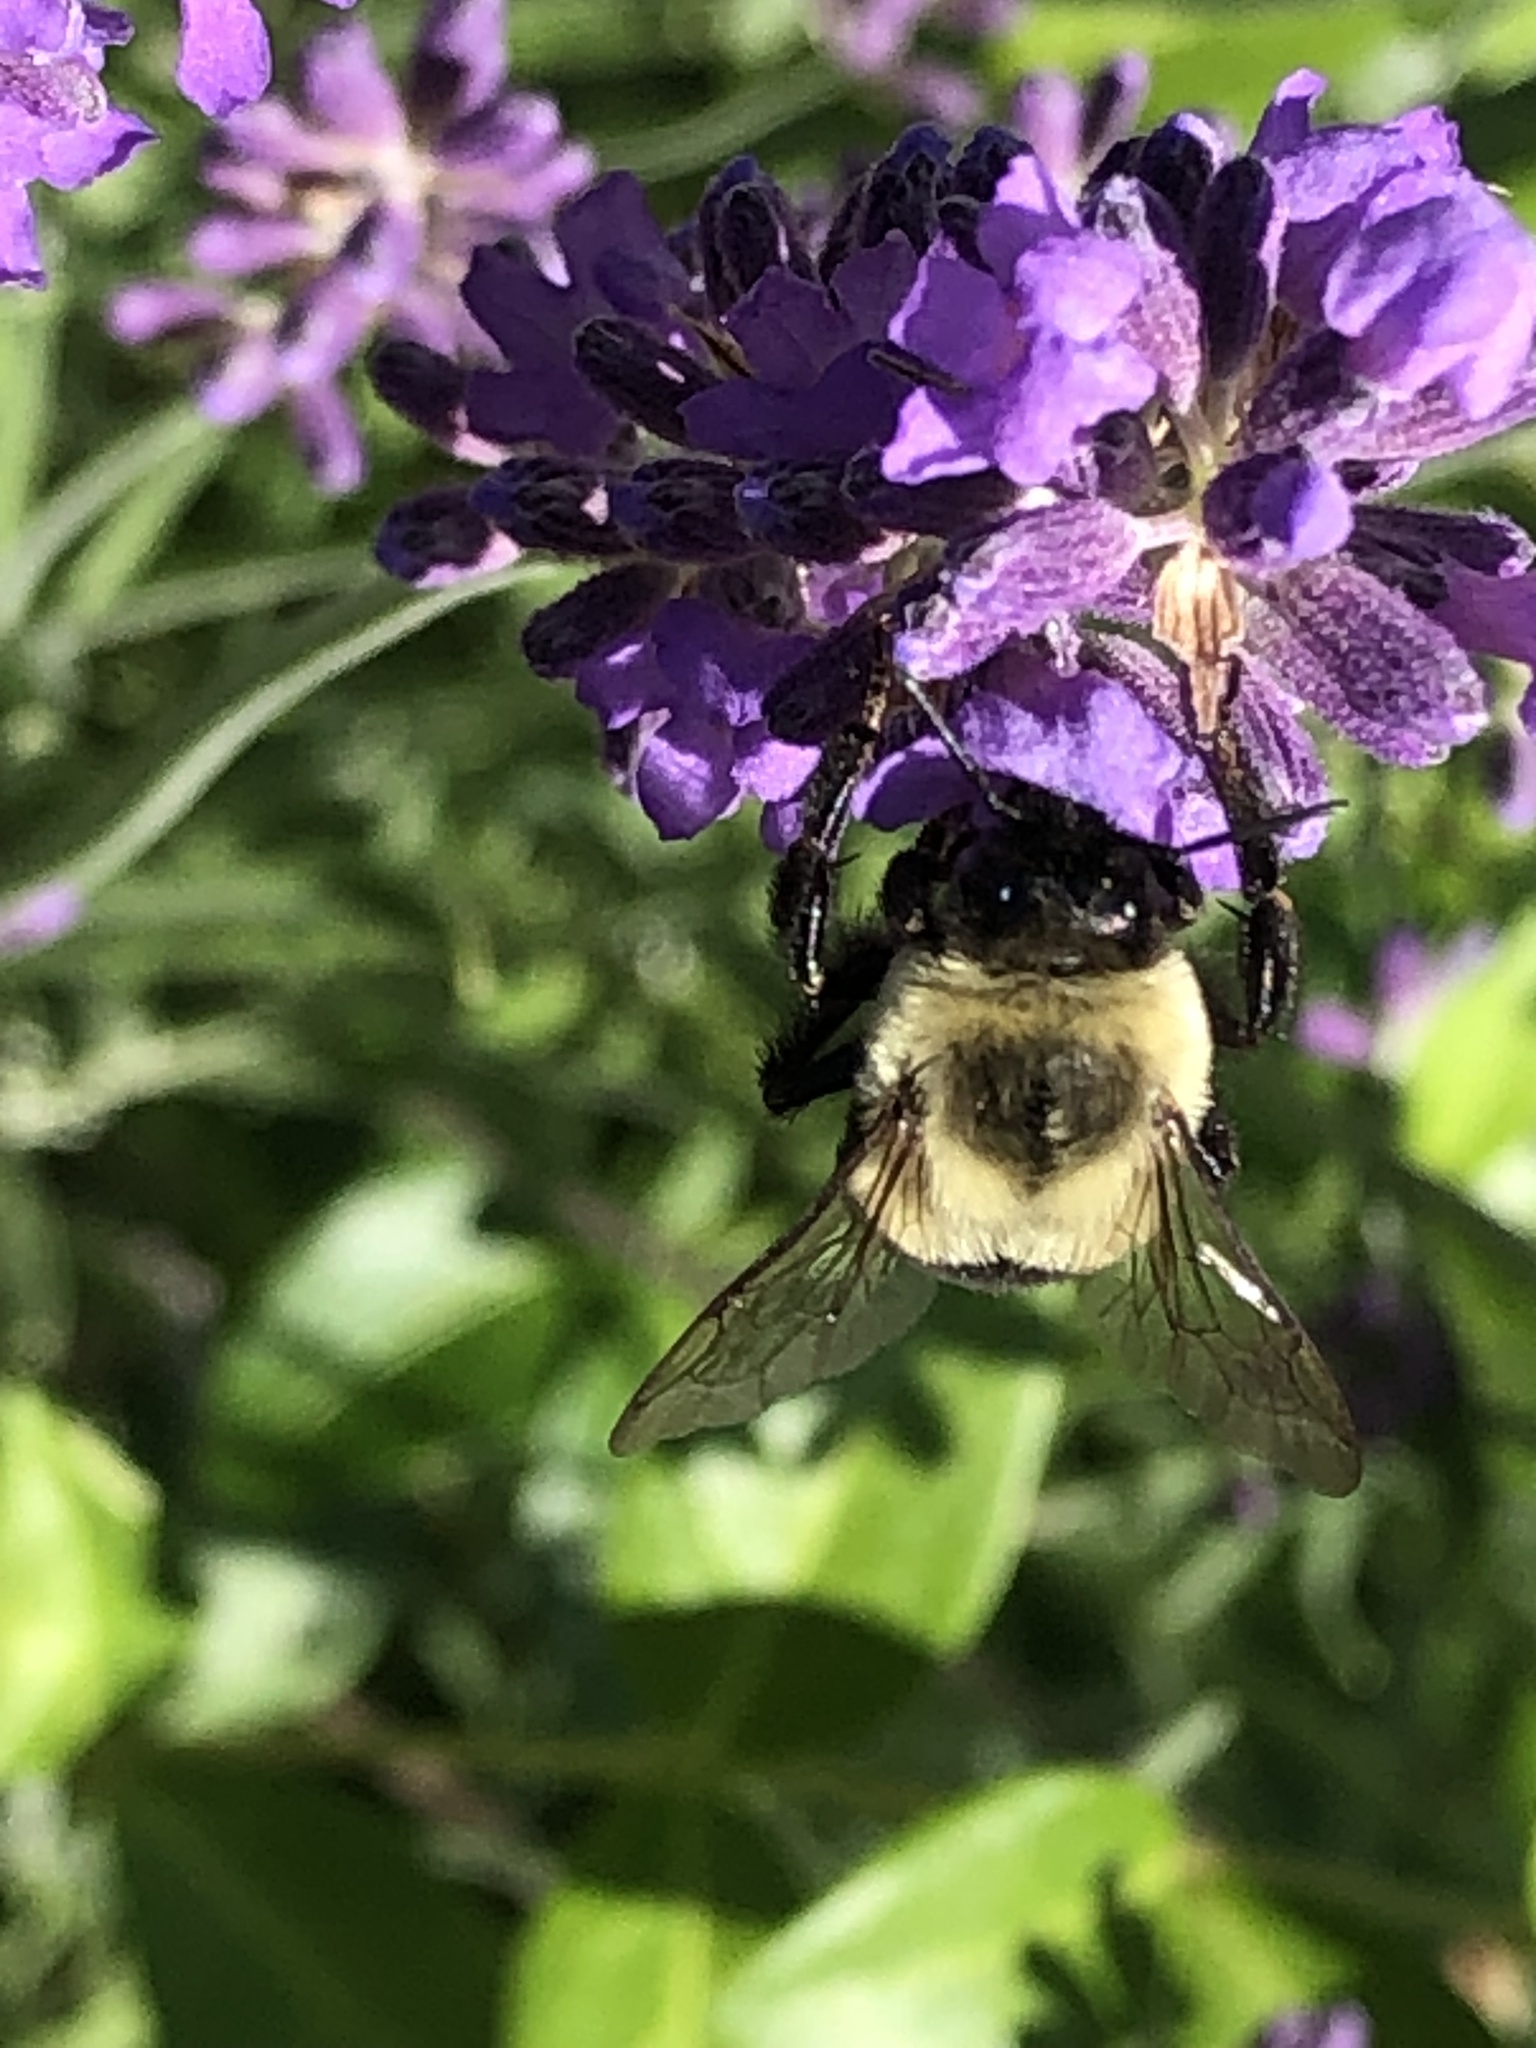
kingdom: Animalia
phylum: Arthropoda
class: Insecta
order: Hymenoptera
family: Apidae
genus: Bombus
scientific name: Bombus impatiens
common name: Common eastern bumble bee
